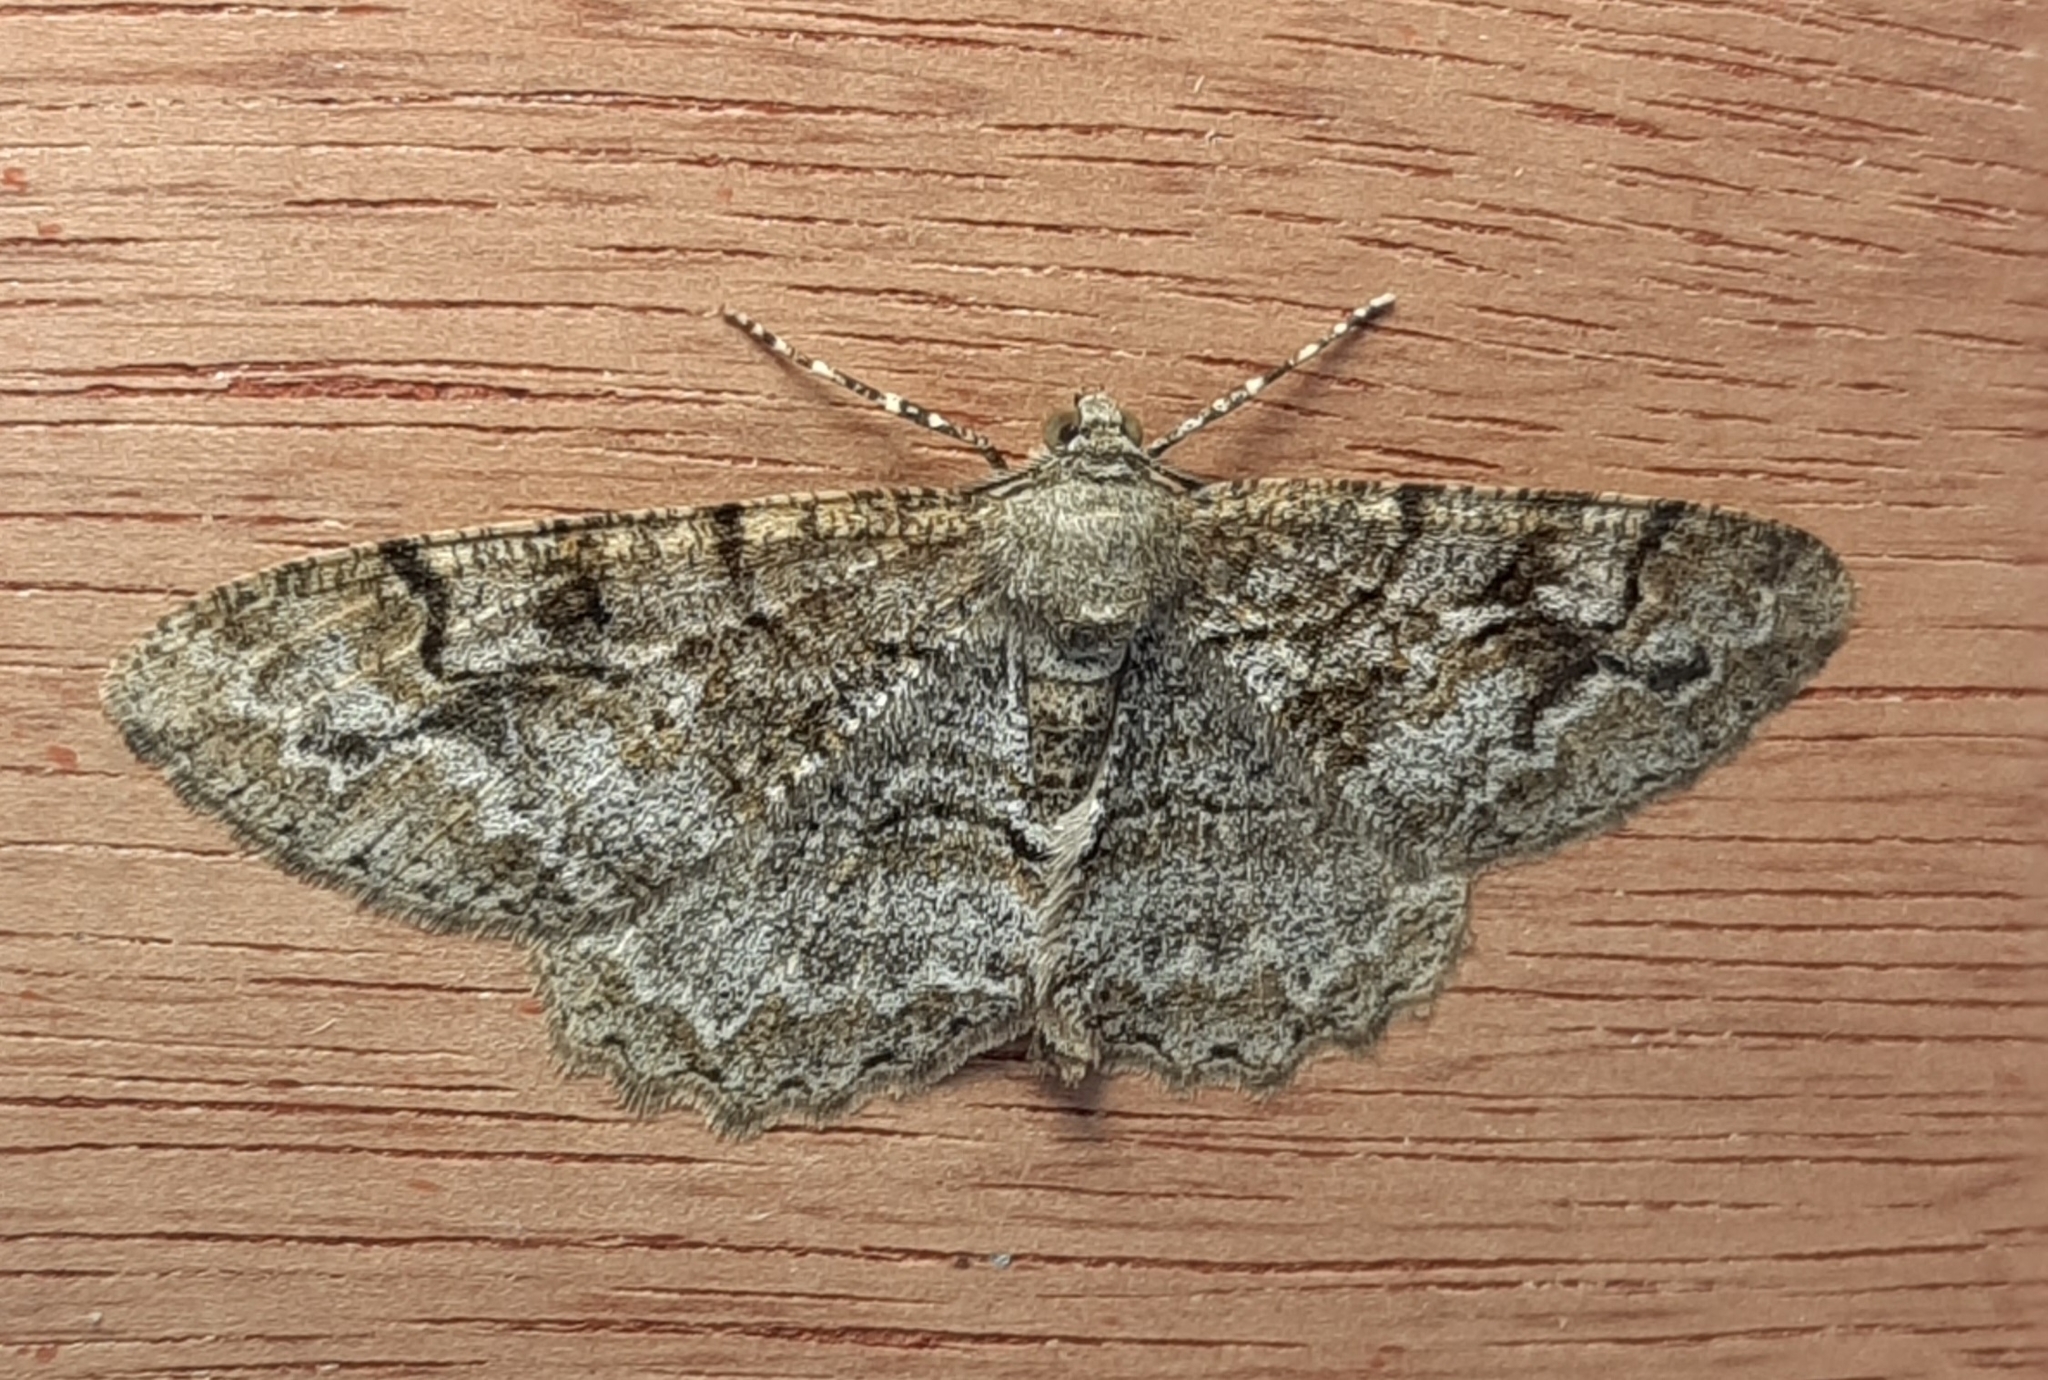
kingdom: Animalia
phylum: Arthropoda
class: Insecta
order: Lepidoptera
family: Geometridae
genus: Alcis
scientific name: Alcis repandata
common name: Mottled beauty
